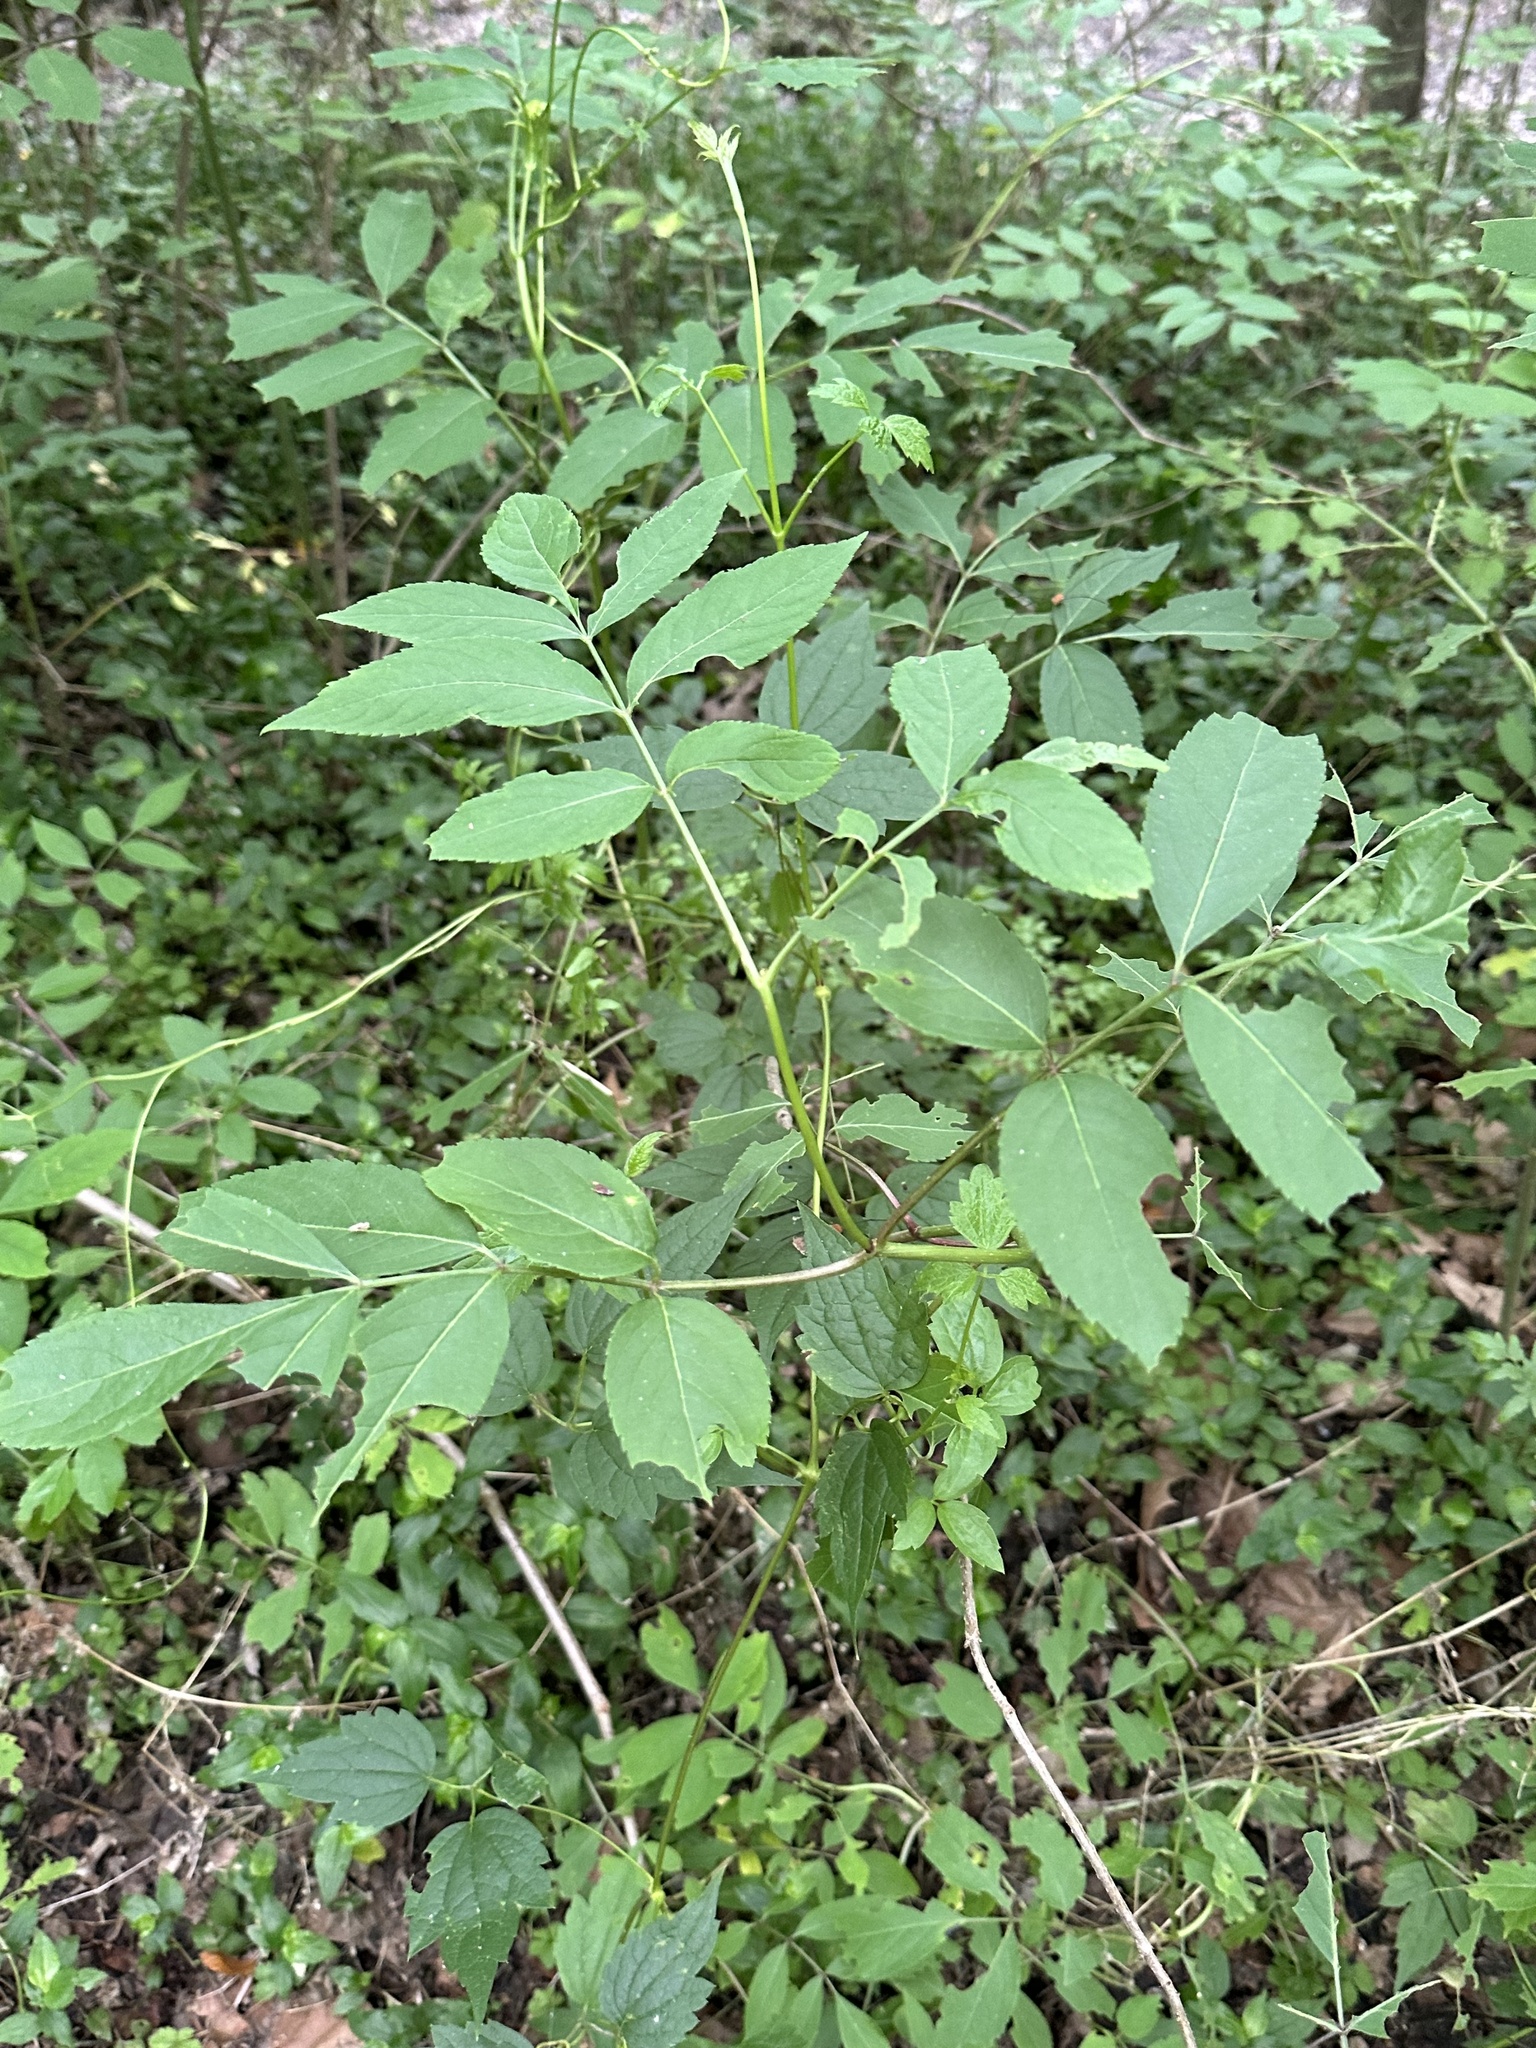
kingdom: Plantae
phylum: Tracheophyta
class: Magnoliopsida
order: Dipsacales
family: Viburnaceae
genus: Sambucus
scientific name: Sambucus canadensis
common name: American elder
